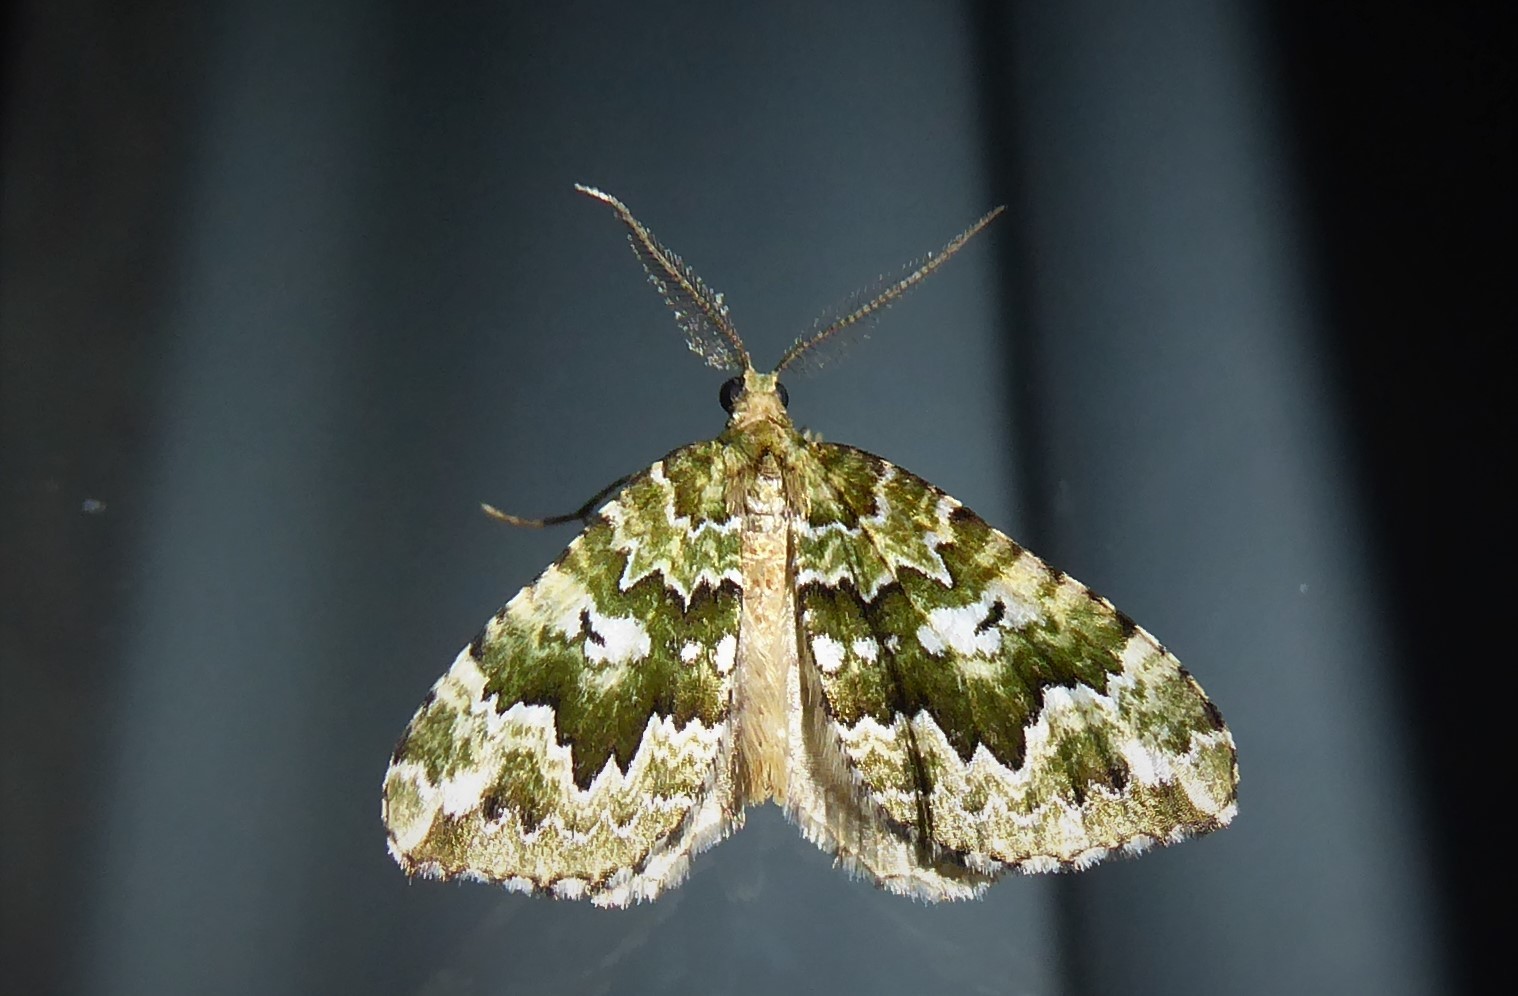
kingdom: Animalia
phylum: Arthropoda
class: Insecta
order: Lepidoptera
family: Geometridae
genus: Asaphodes
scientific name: Asaphodes beata
